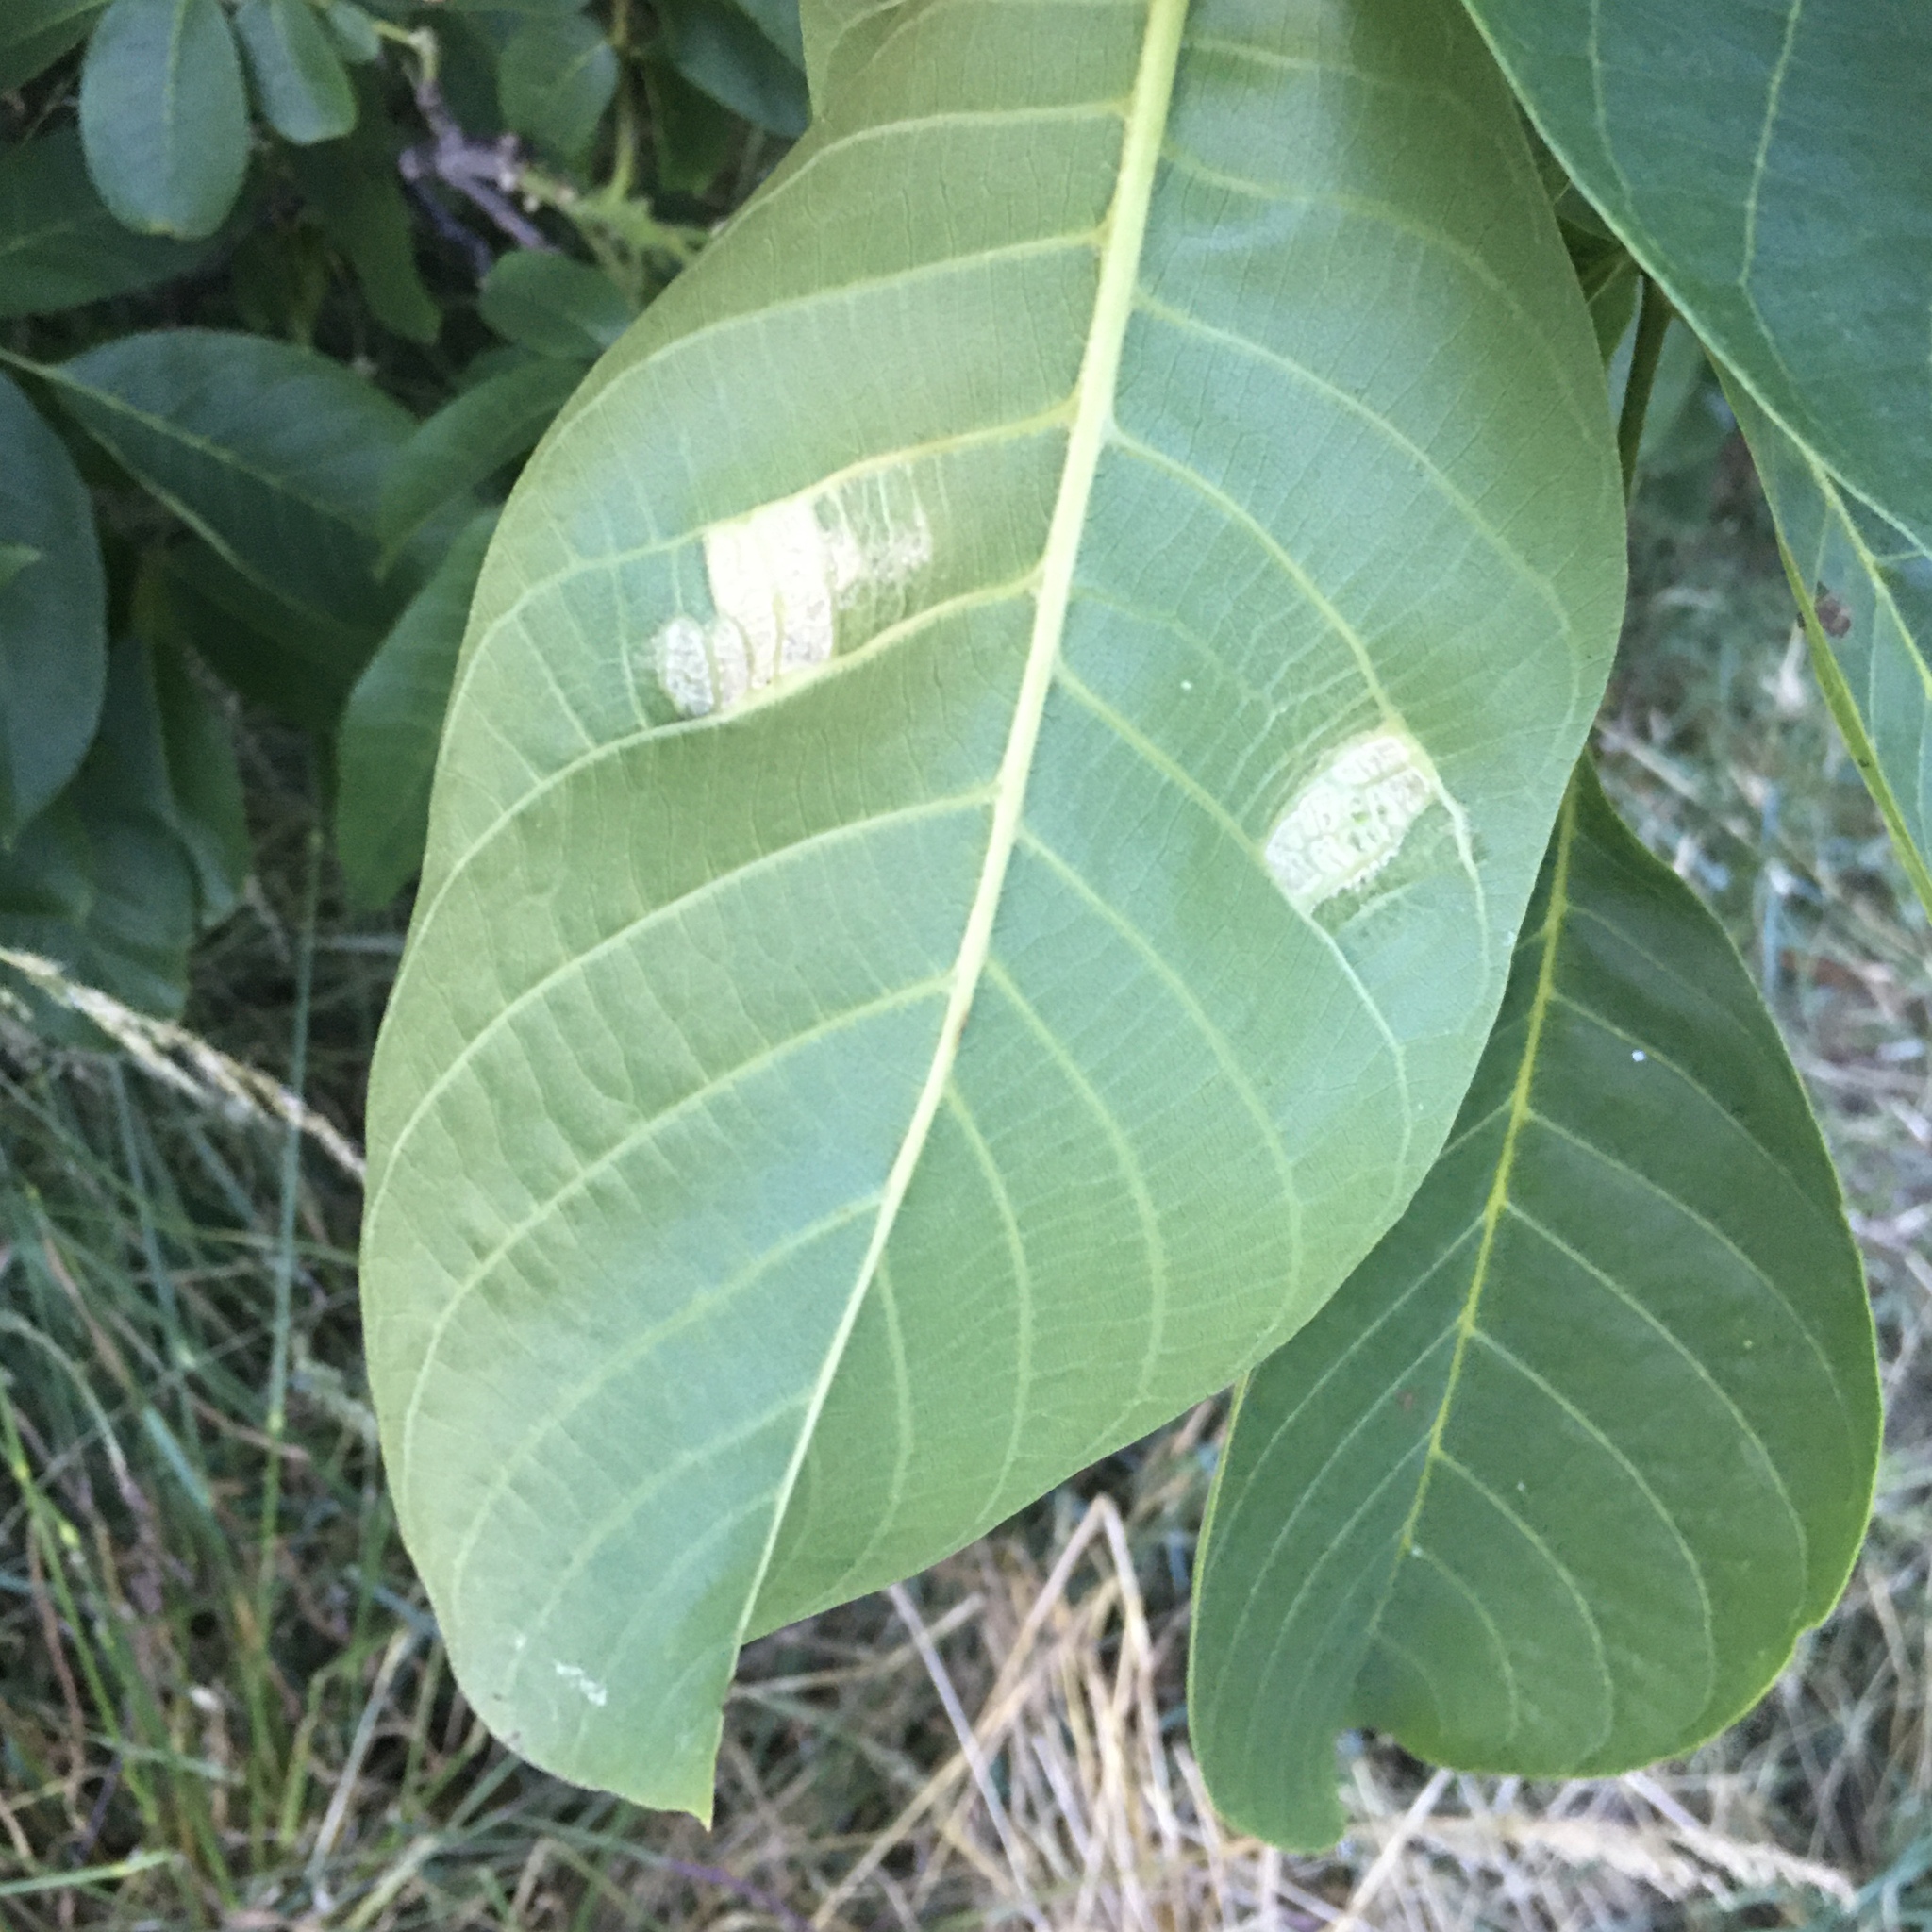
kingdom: Animalia
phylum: Arthropoda
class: Arachnida
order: Trombidiformes
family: Eriophyidae
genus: Aceria
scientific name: Aceria erinea
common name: Persian walnut erineum mite
